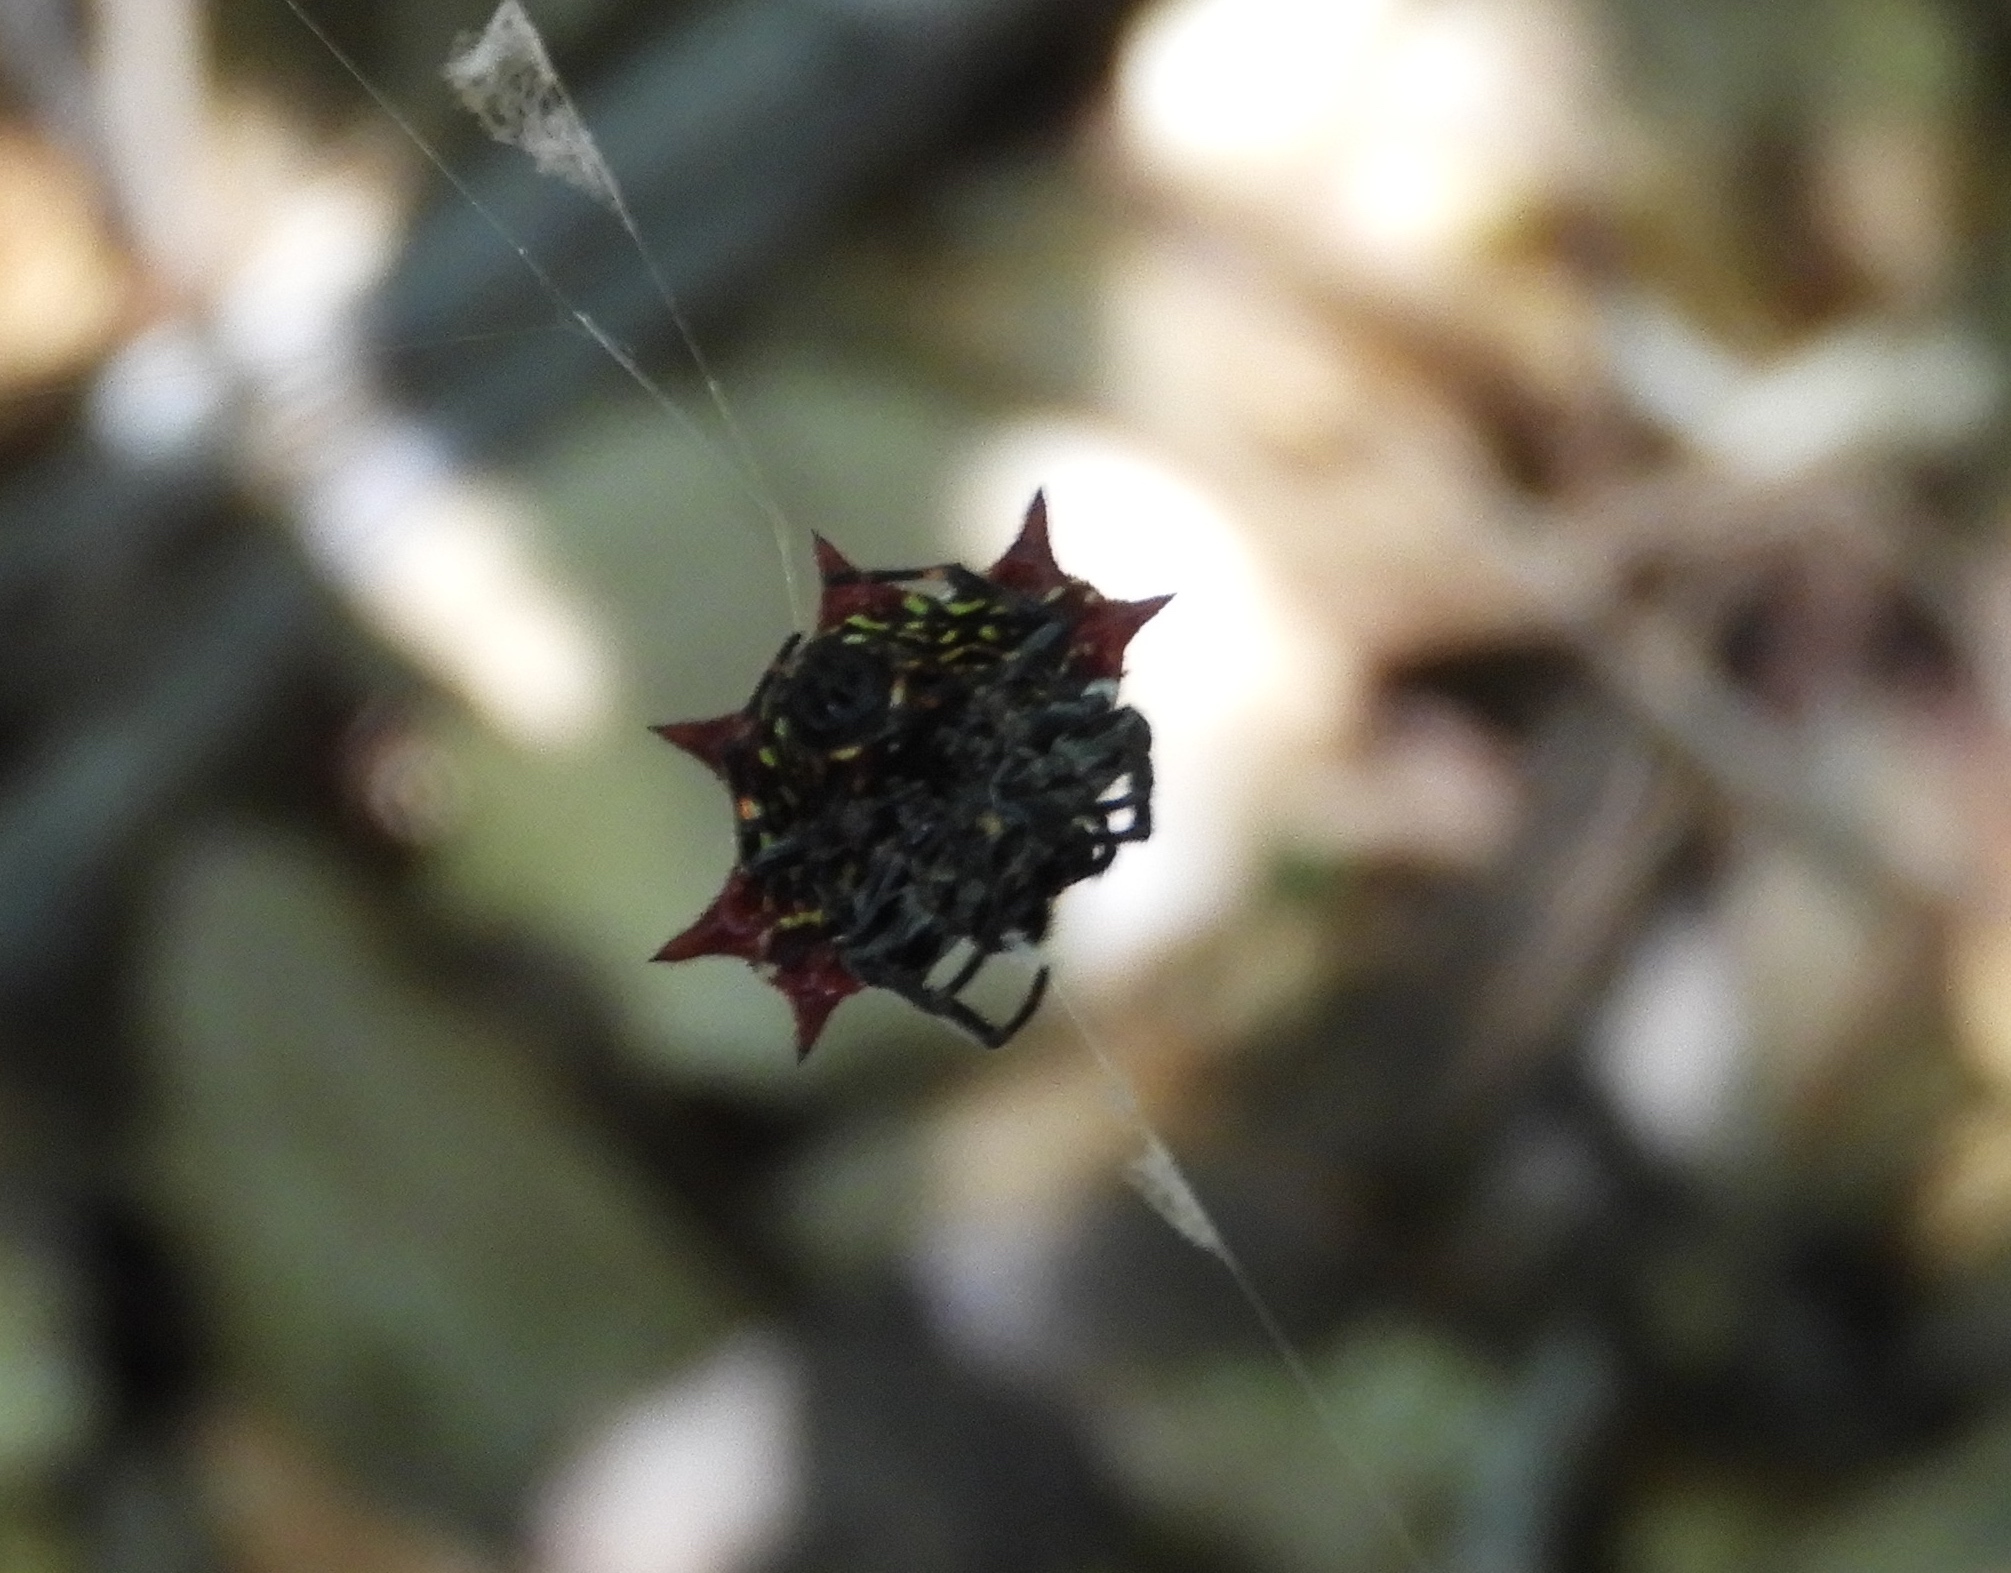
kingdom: Animalia
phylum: Arthropoda
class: Arachnida
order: Araneae
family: Araneidae
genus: Gasteracantha
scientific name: Gasteracantha cancriformis
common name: Orb weavers
